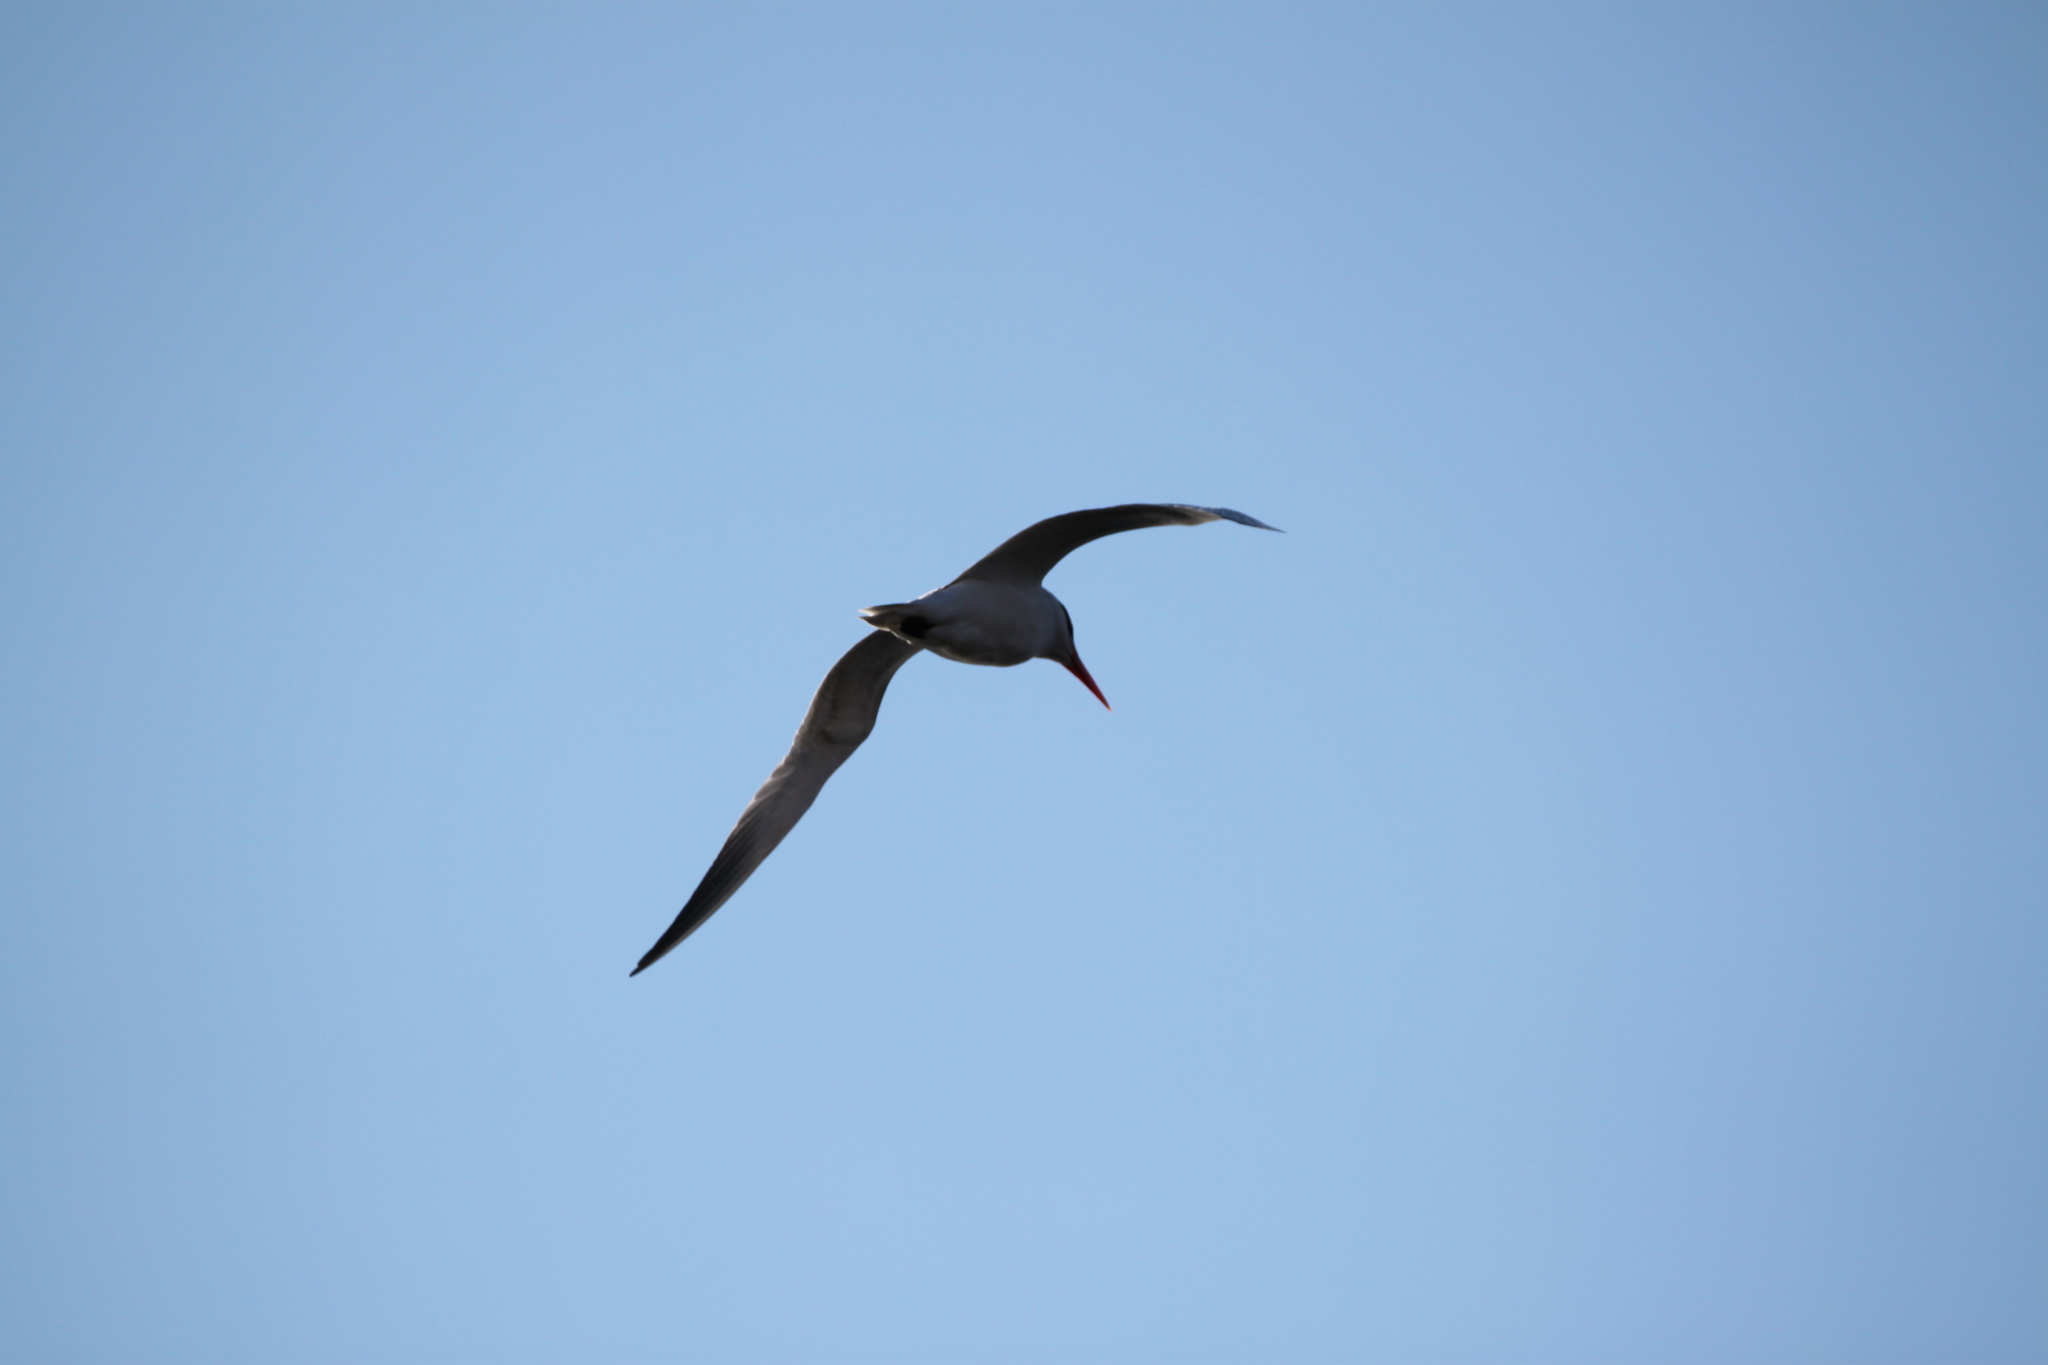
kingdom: Animalia
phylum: Chordata
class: Aves
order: Charadriiformes
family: Laridae
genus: Hydroprogne
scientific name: Hydroprogne caspia
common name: Caspian tern
